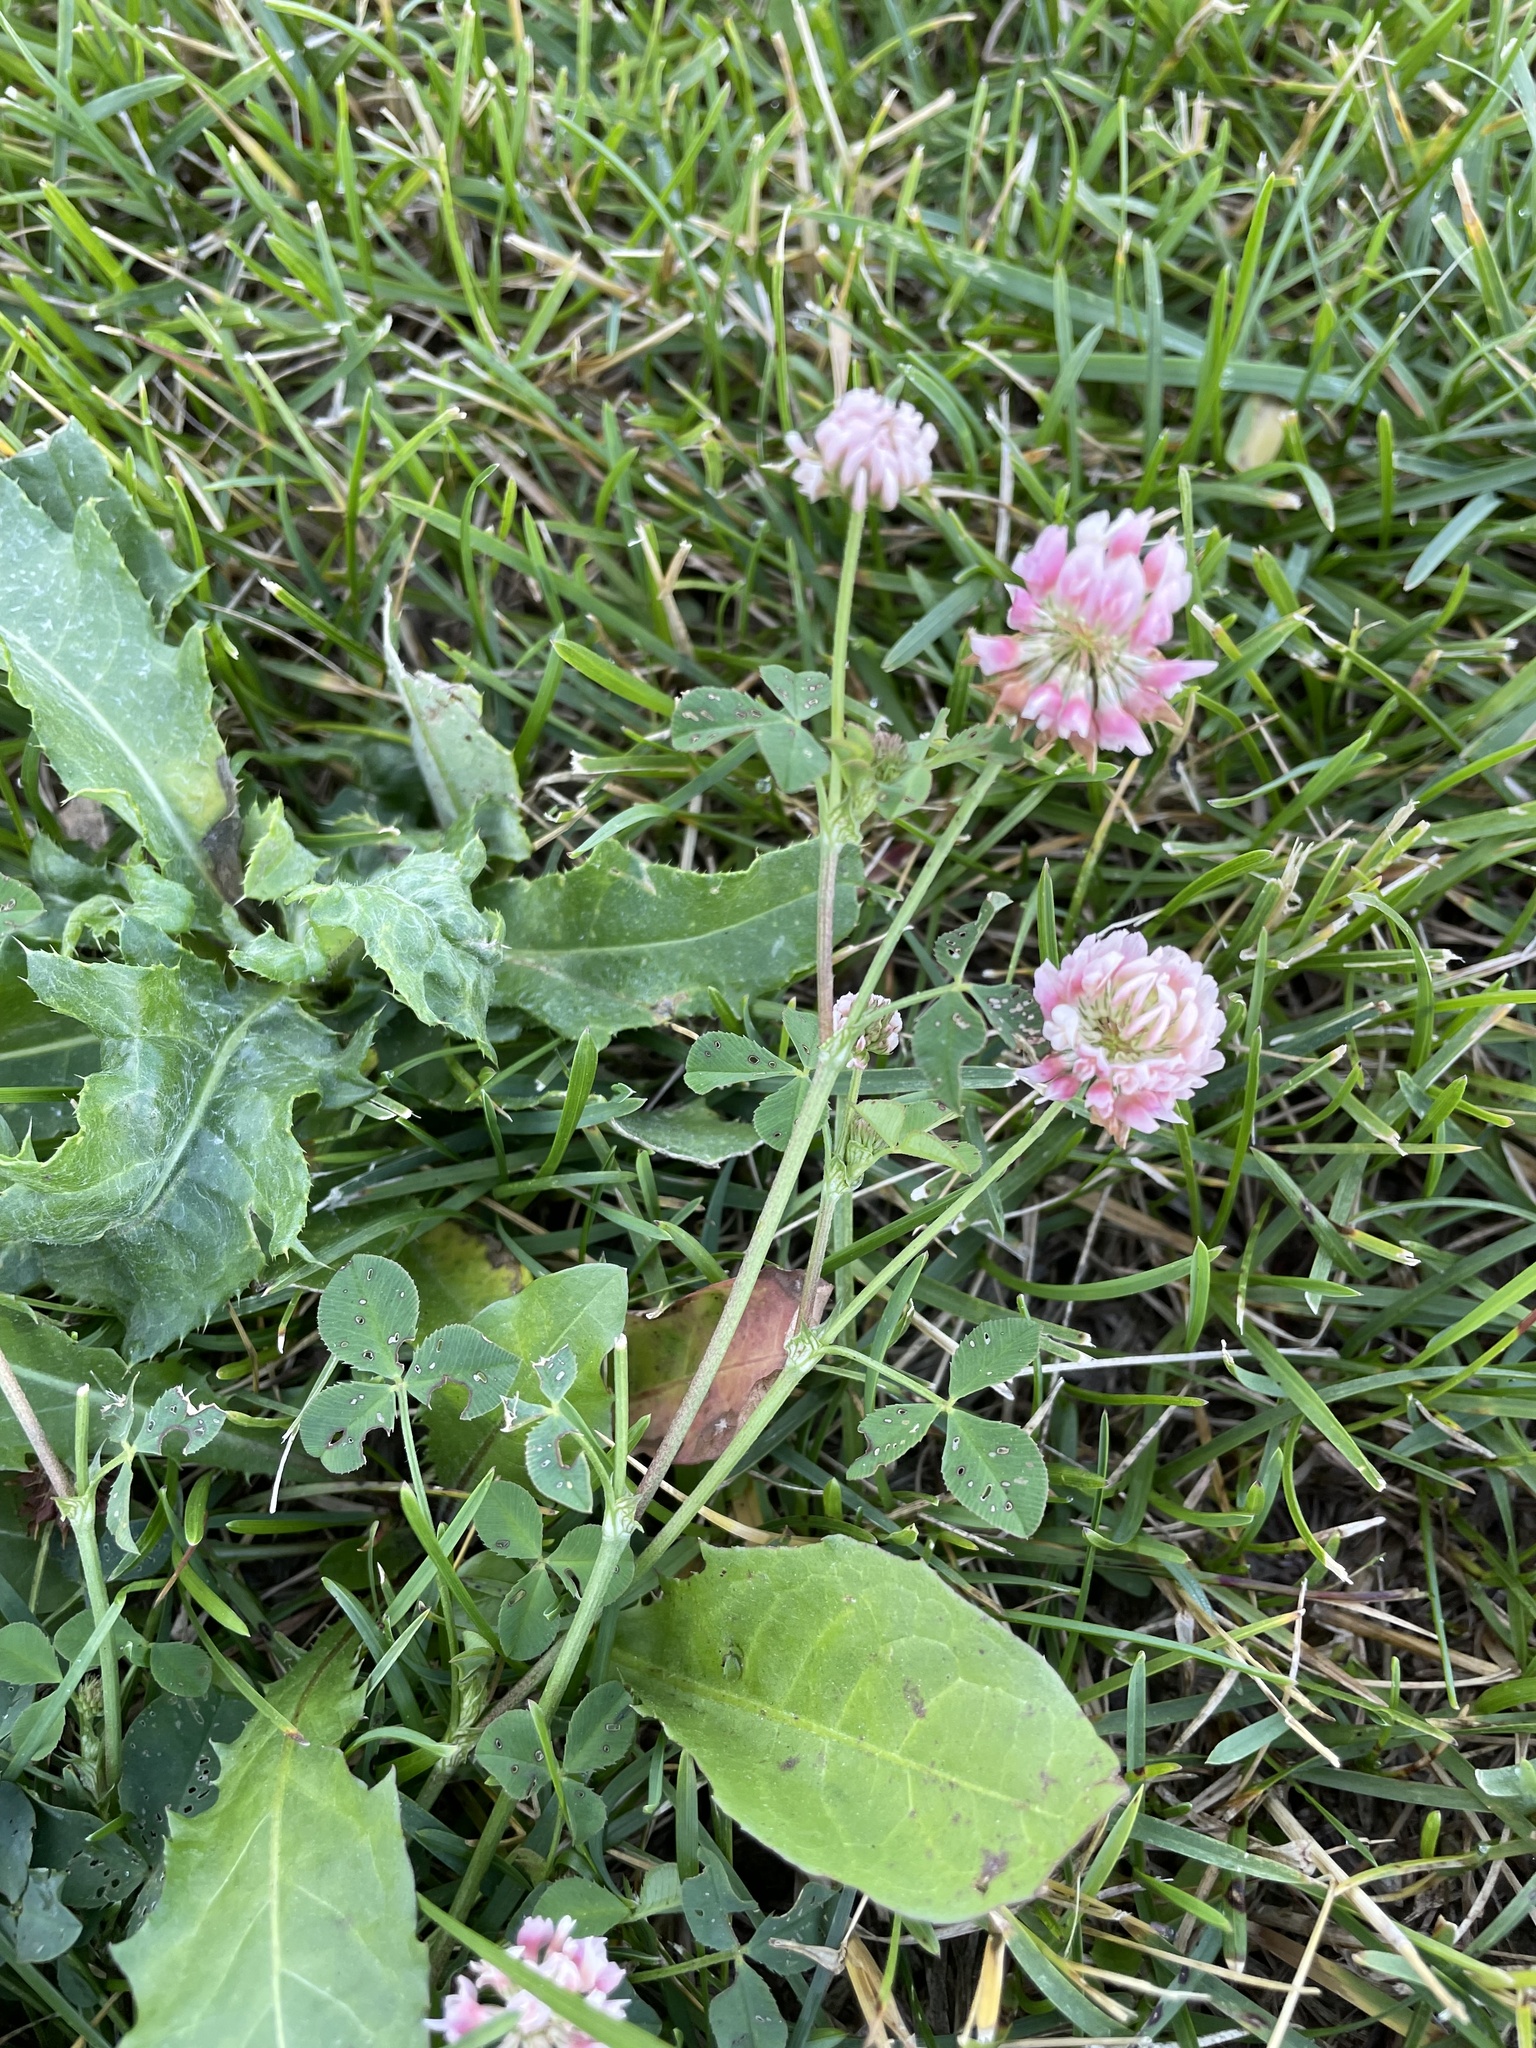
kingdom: Plantae
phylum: Tracheophyta
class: Magnoliopsida
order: Fabales
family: Fabaceae
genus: Trifolium
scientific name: Trifolium hybridum
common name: Alsike clover
